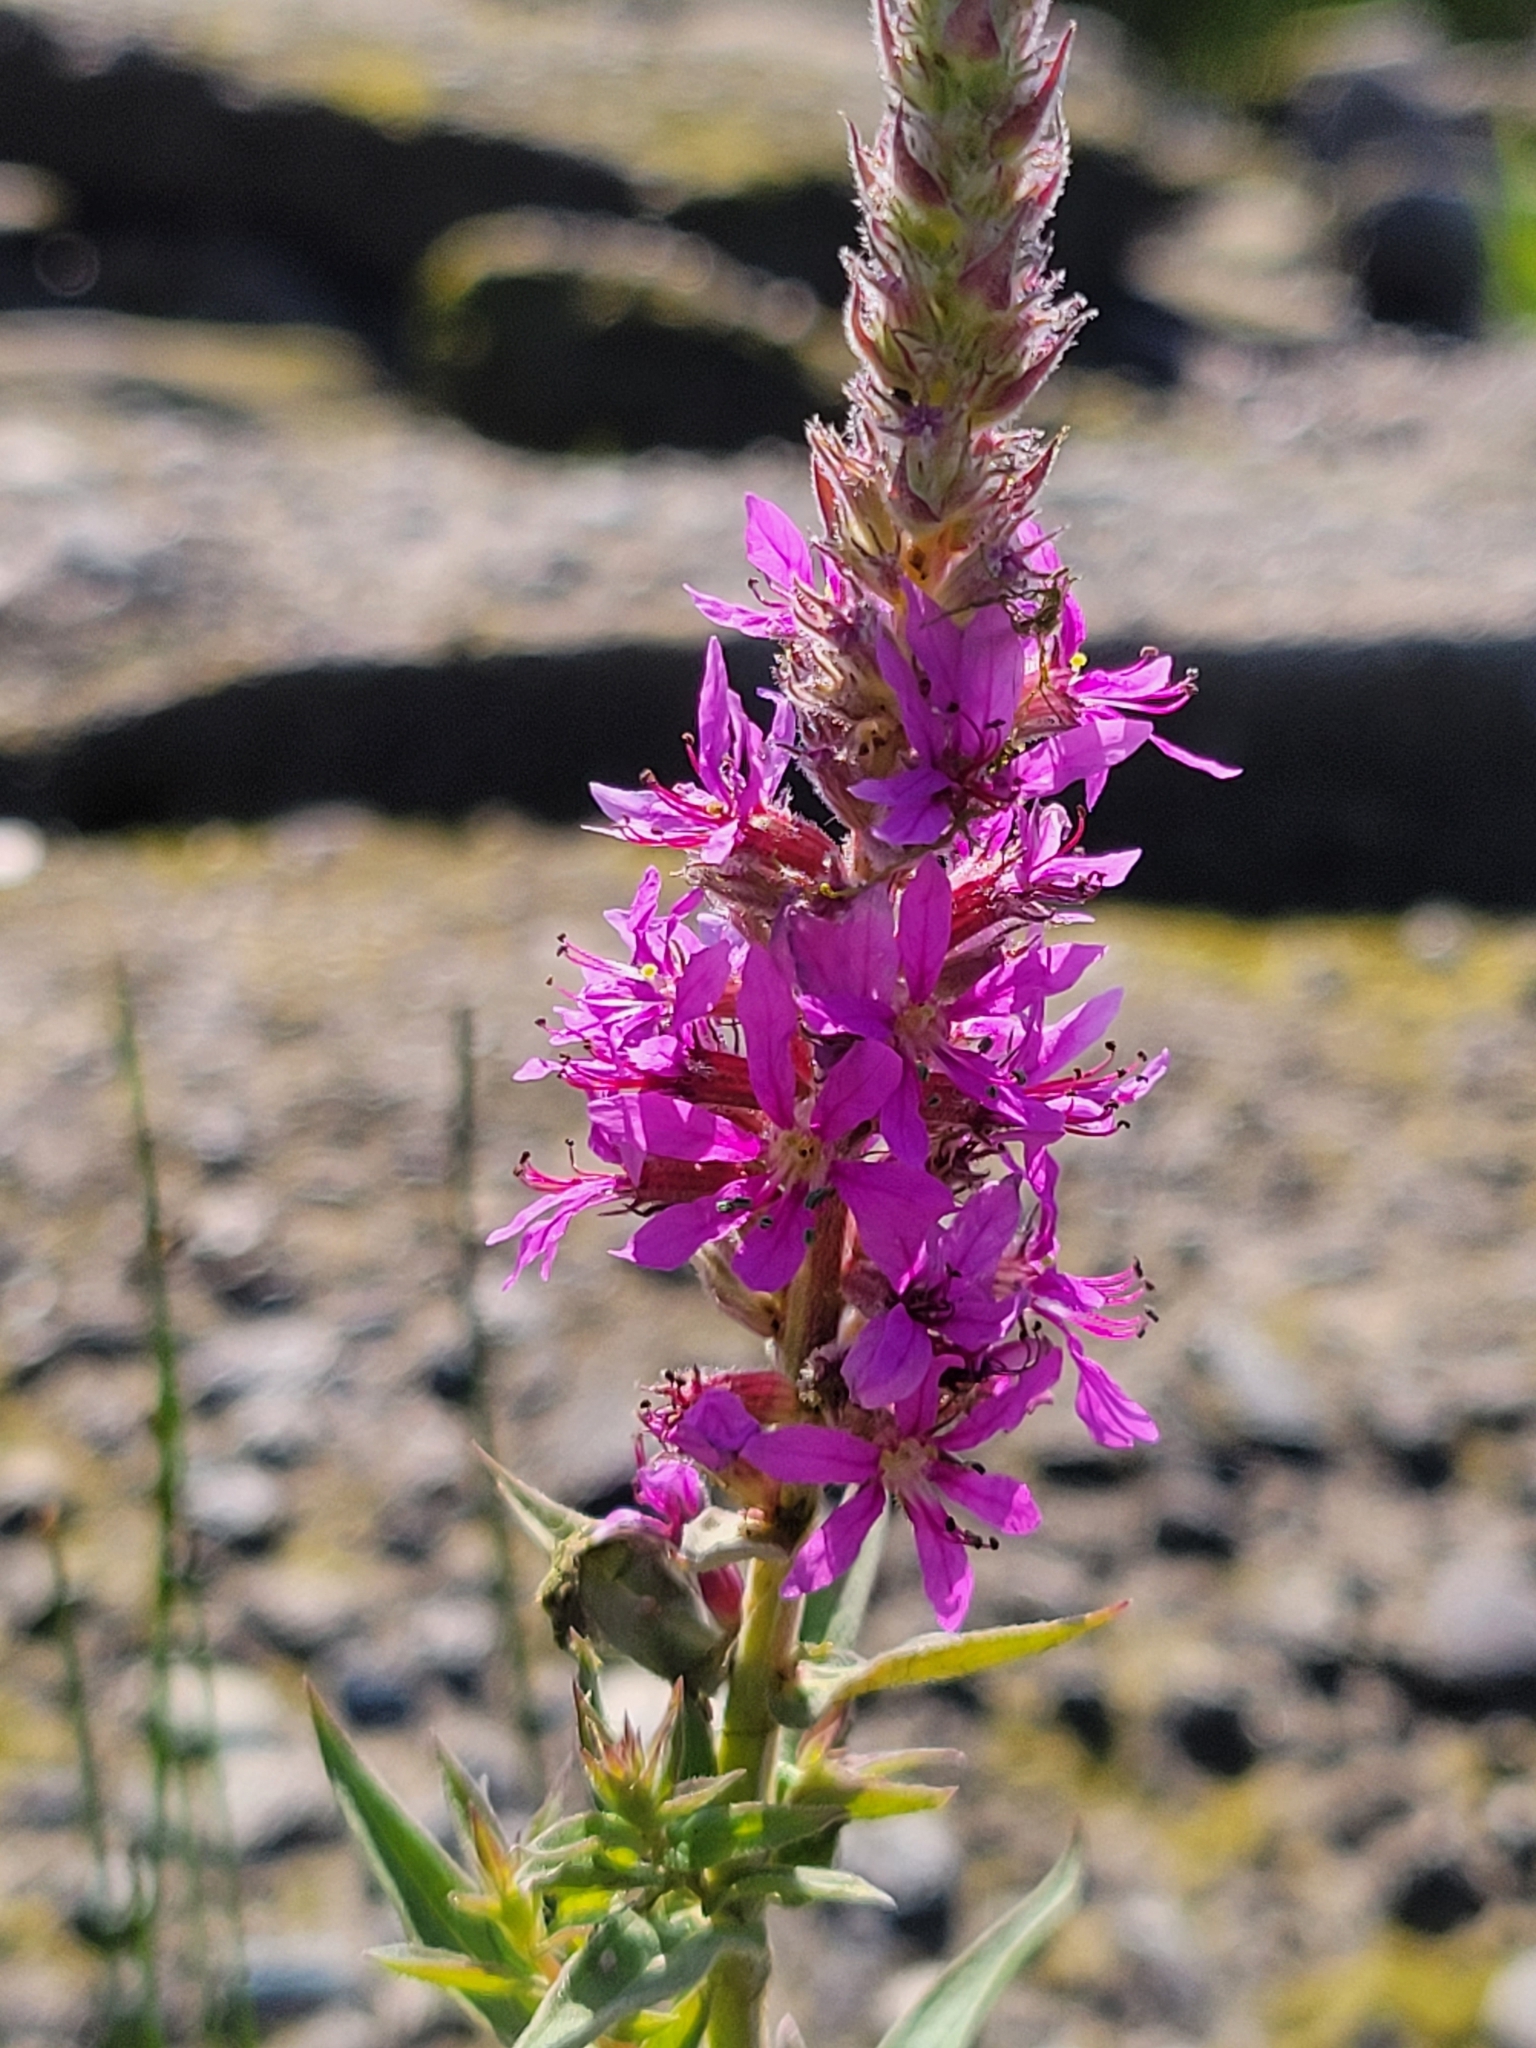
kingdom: Plantae
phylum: Tracheophyta
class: Magnoliopsida
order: Myrtales
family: Lythraceae
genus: Lythrum
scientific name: Lythrum salicaria
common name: Purple loosestrife
